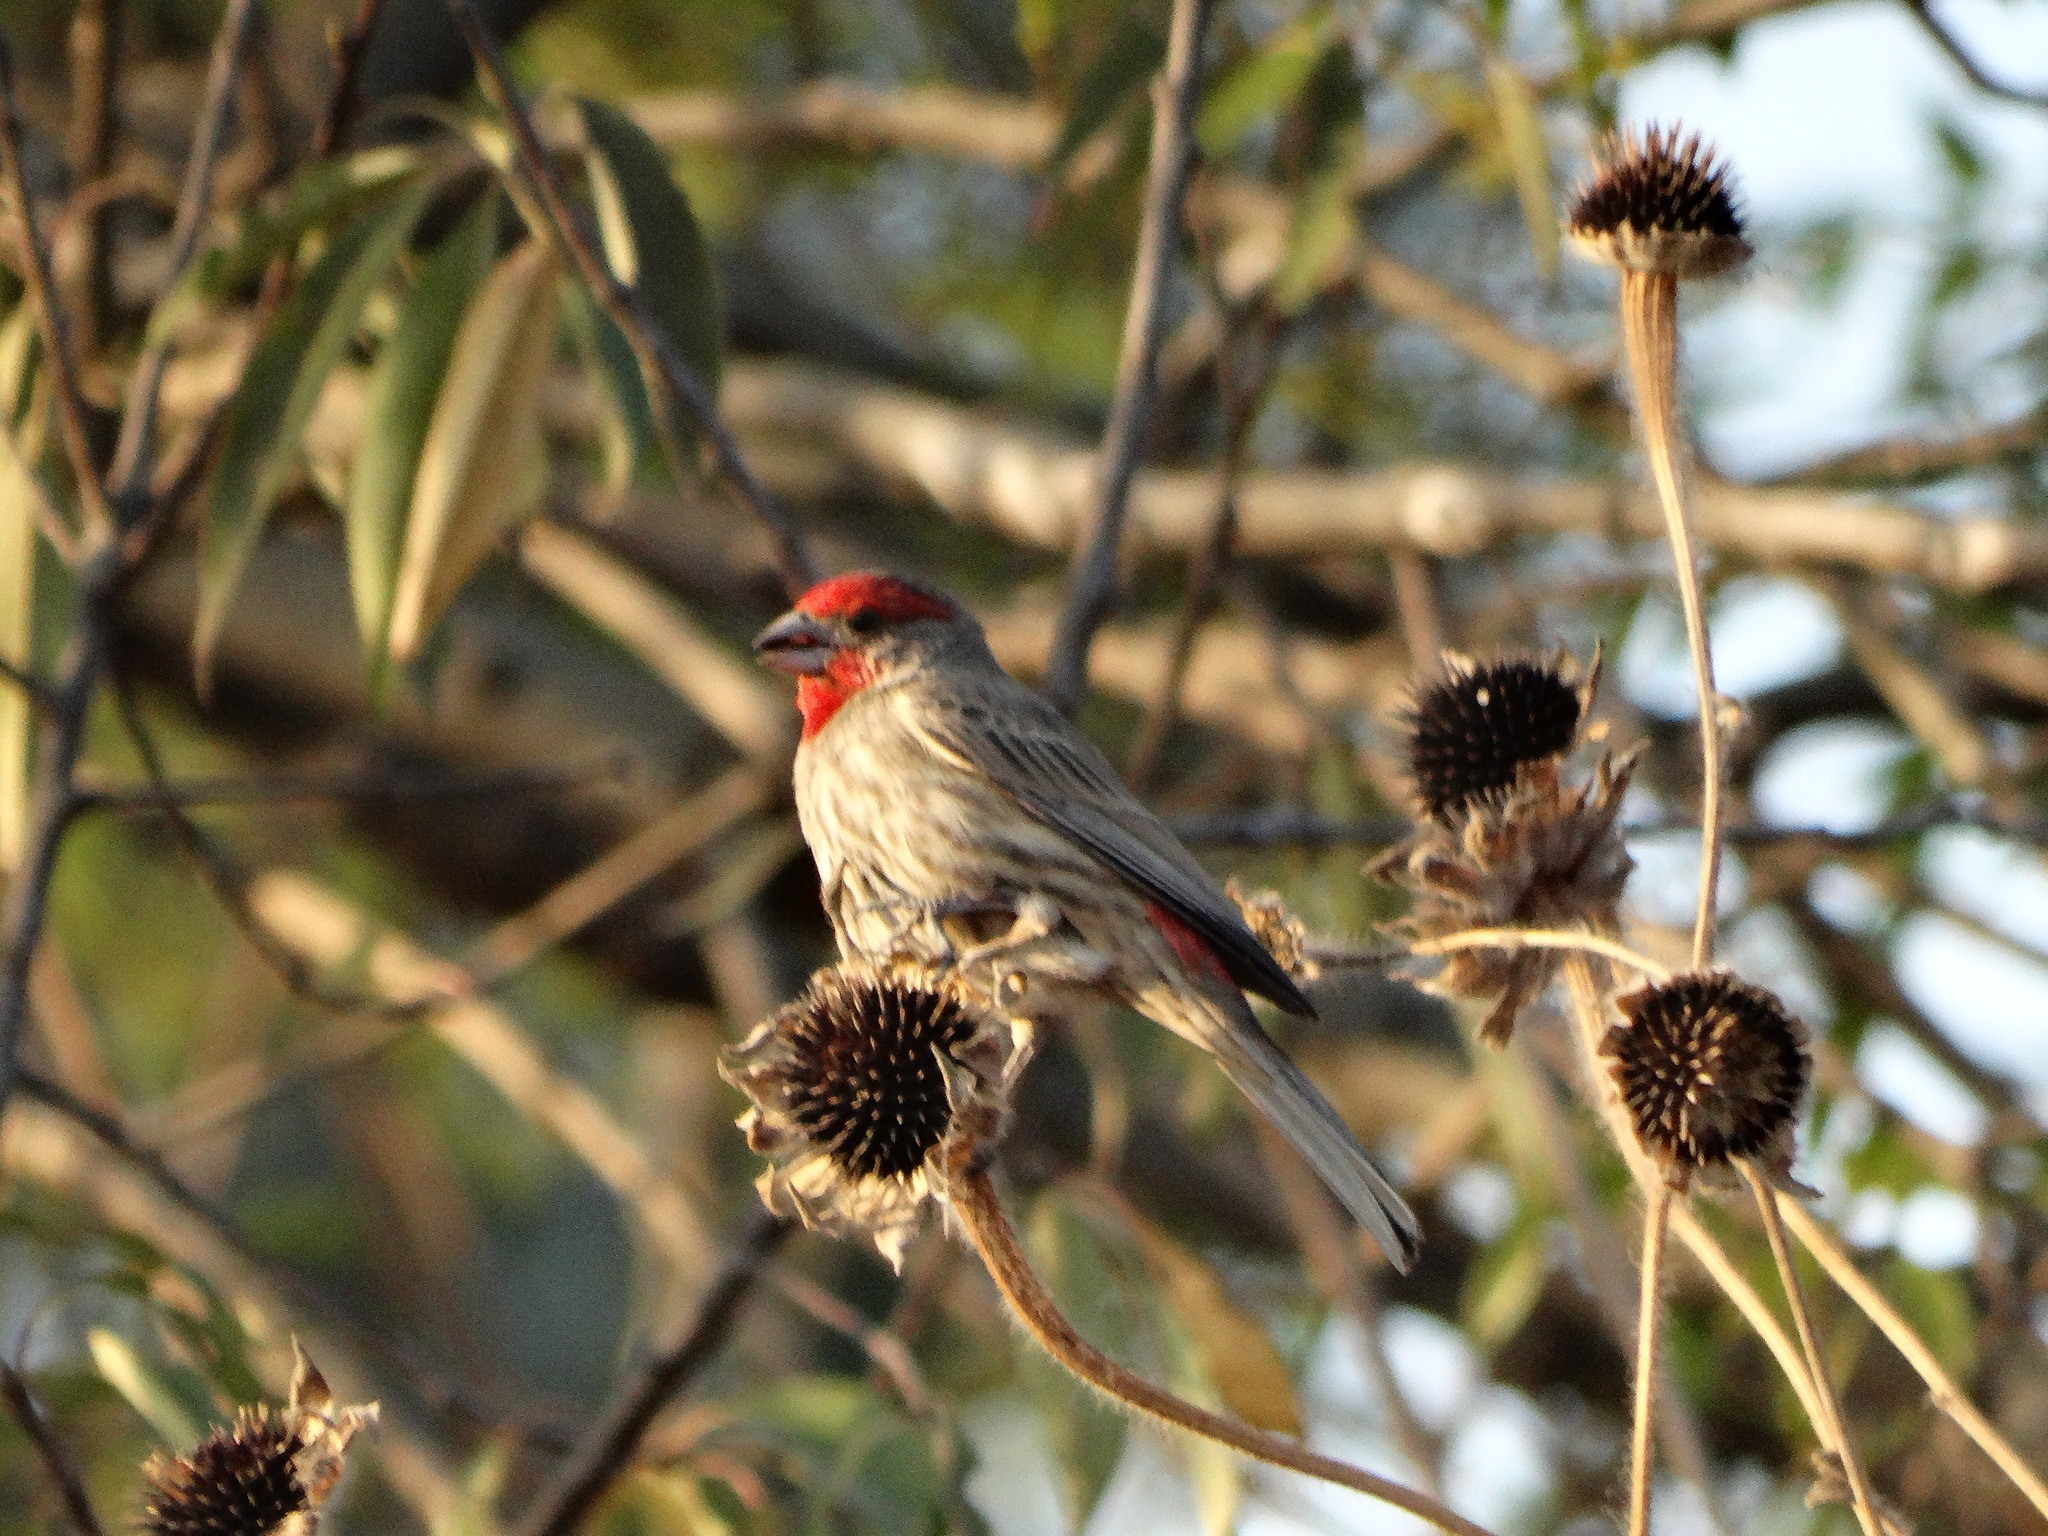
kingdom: Animalia
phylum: Chordata
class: Aves
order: Passeriformes
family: Fringillidae
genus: Haemorhous
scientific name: Haemorhous mexicanus
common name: House finch
